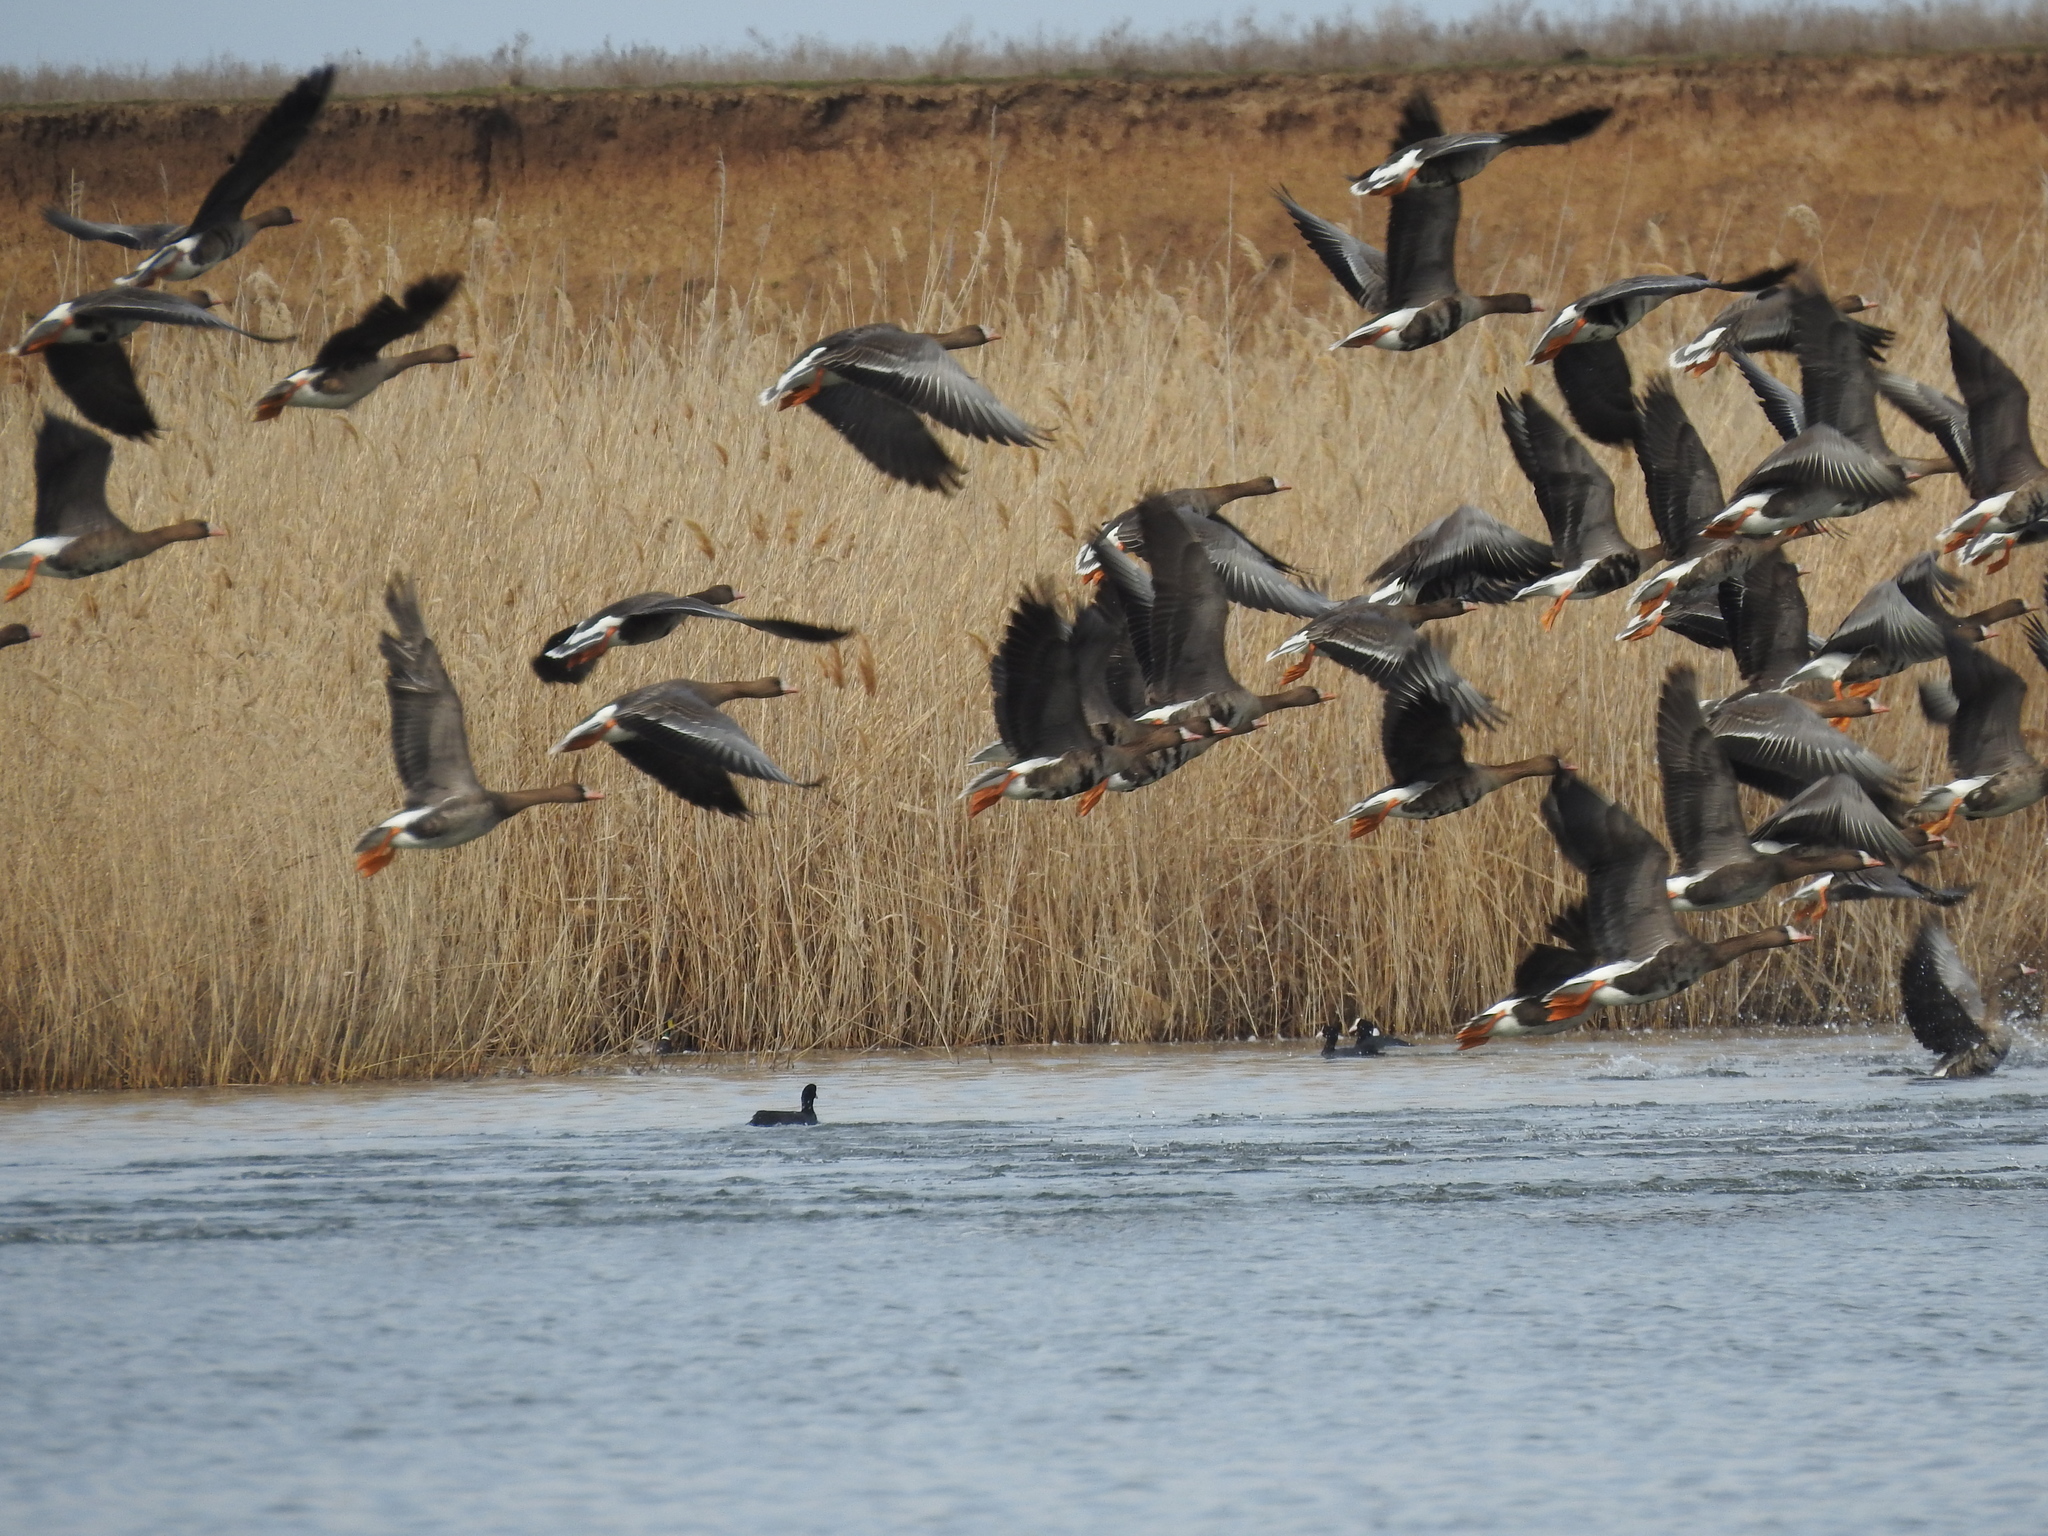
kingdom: Animalia
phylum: Chordata
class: Aves
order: Anseriformes
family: Anatidae
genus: Anser
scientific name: Anser albifrons
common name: Greater white-fronted goose
